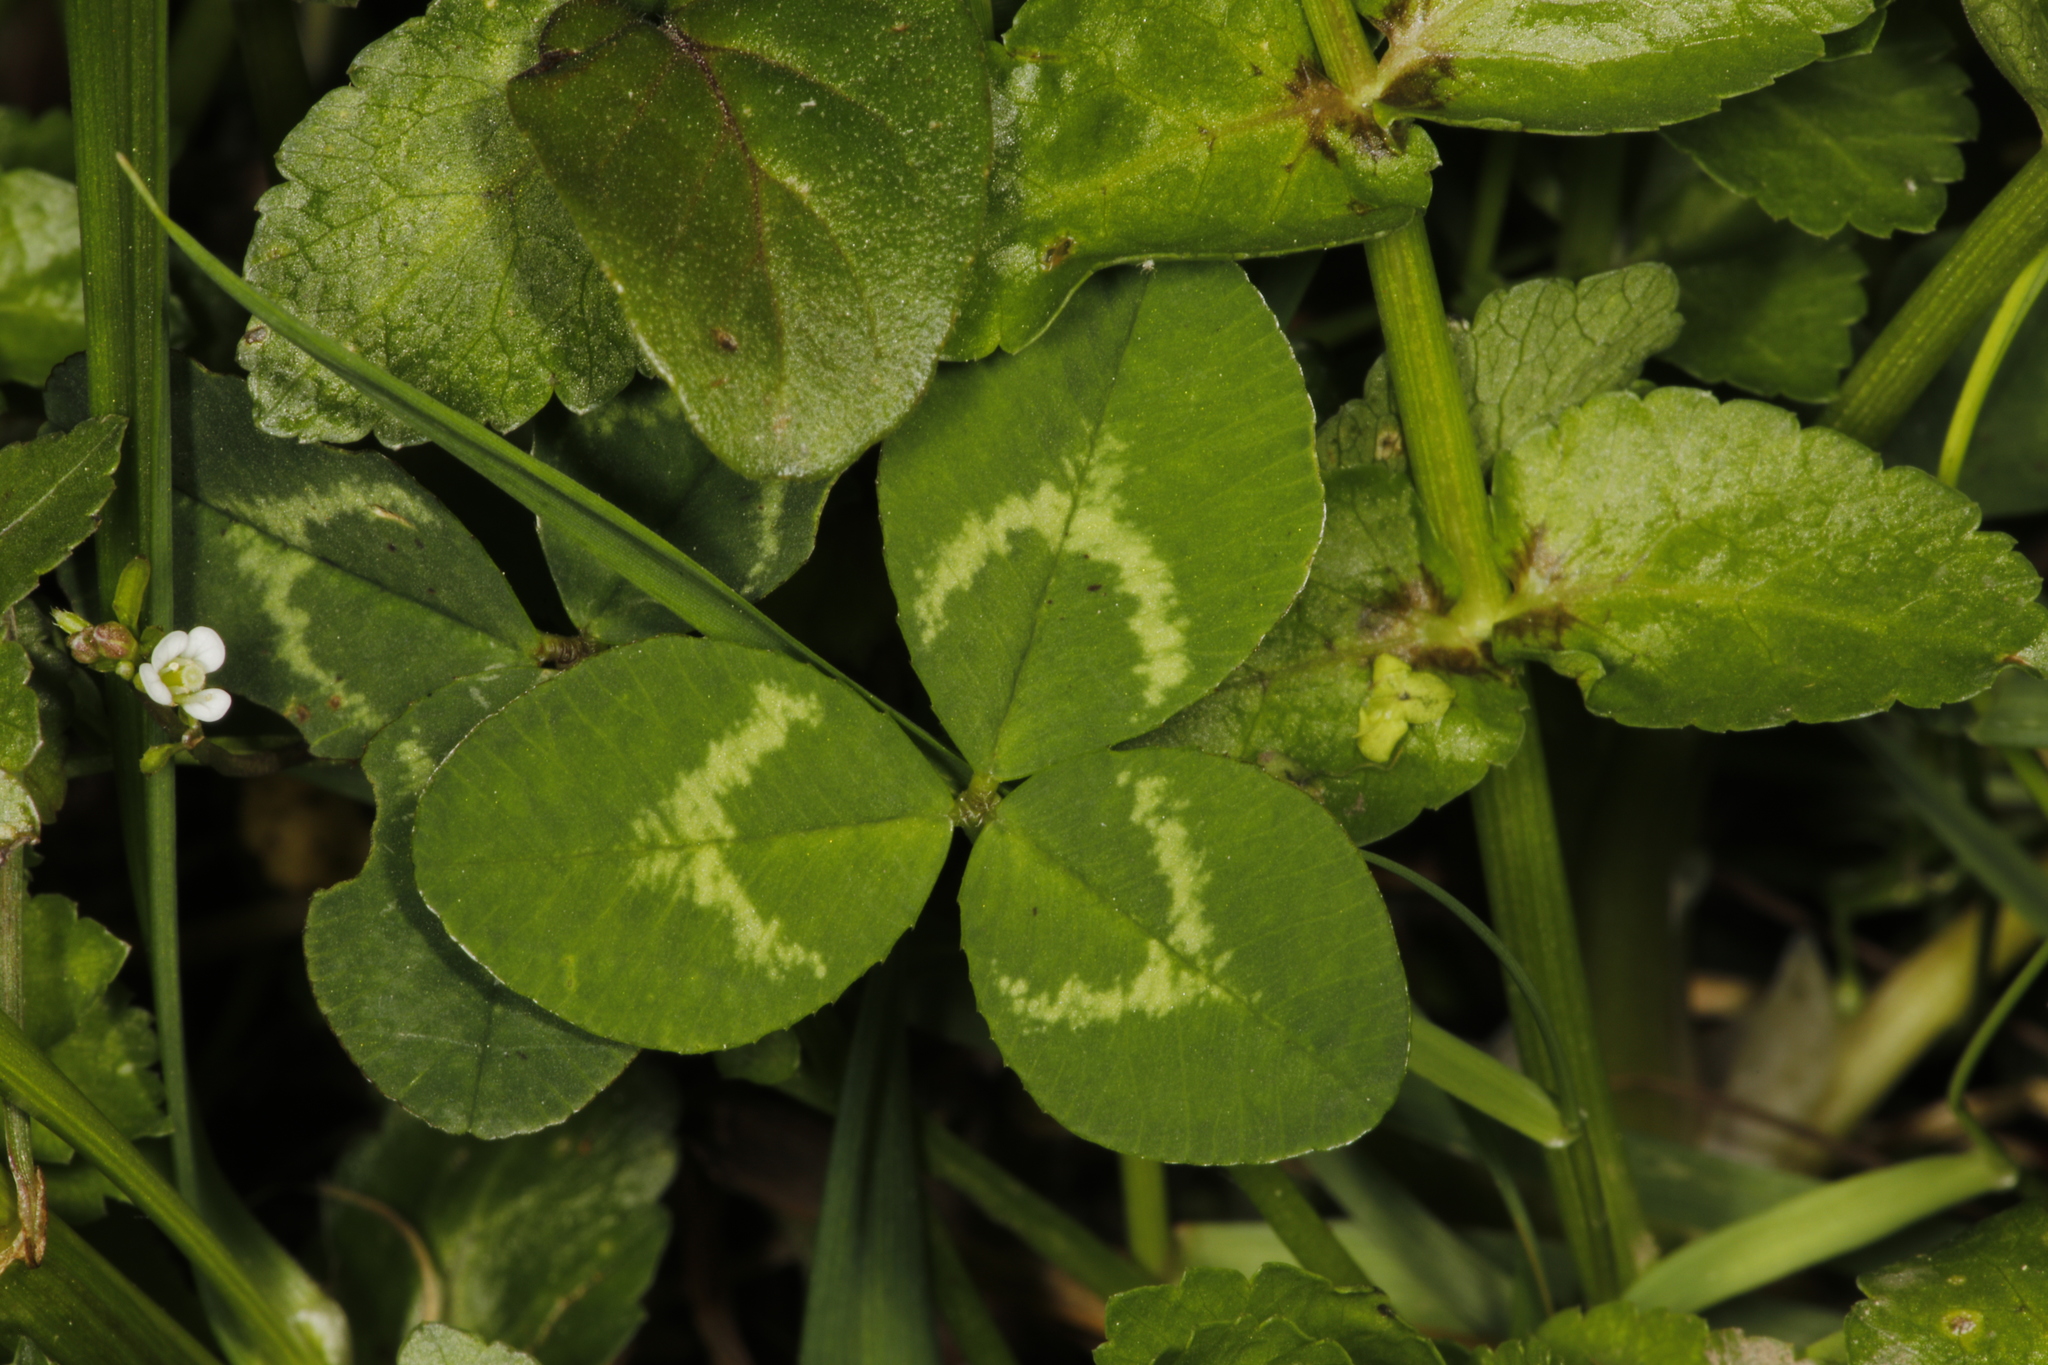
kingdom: Plantae
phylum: Tracheophyta
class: Magnoliopsida
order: Fabales
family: Fabaceae
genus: Trifolium
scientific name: Trifolium repens
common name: White clover
